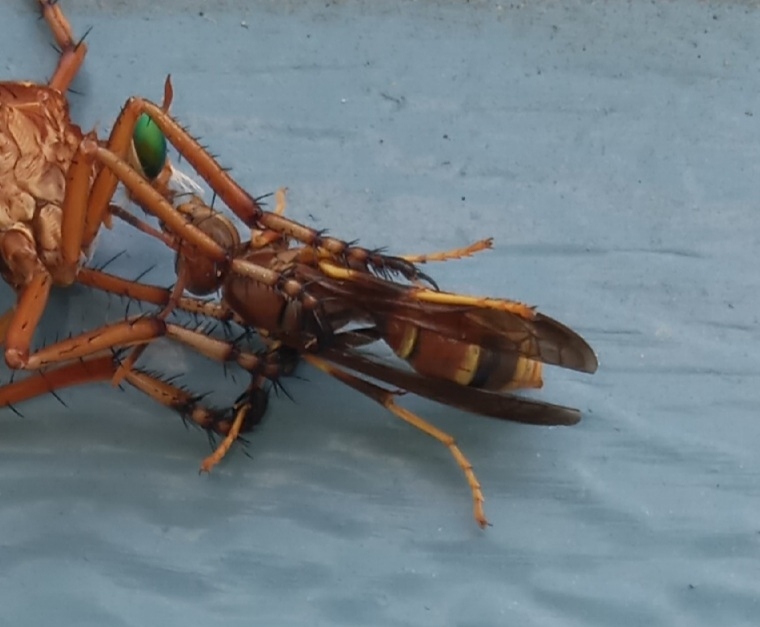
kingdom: Animalia
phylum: Arthropoda
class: Insecta
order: Hymenoptera
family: Eumenidae
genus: Polistes
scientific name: Polistes exclamans
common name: Paper wasp
